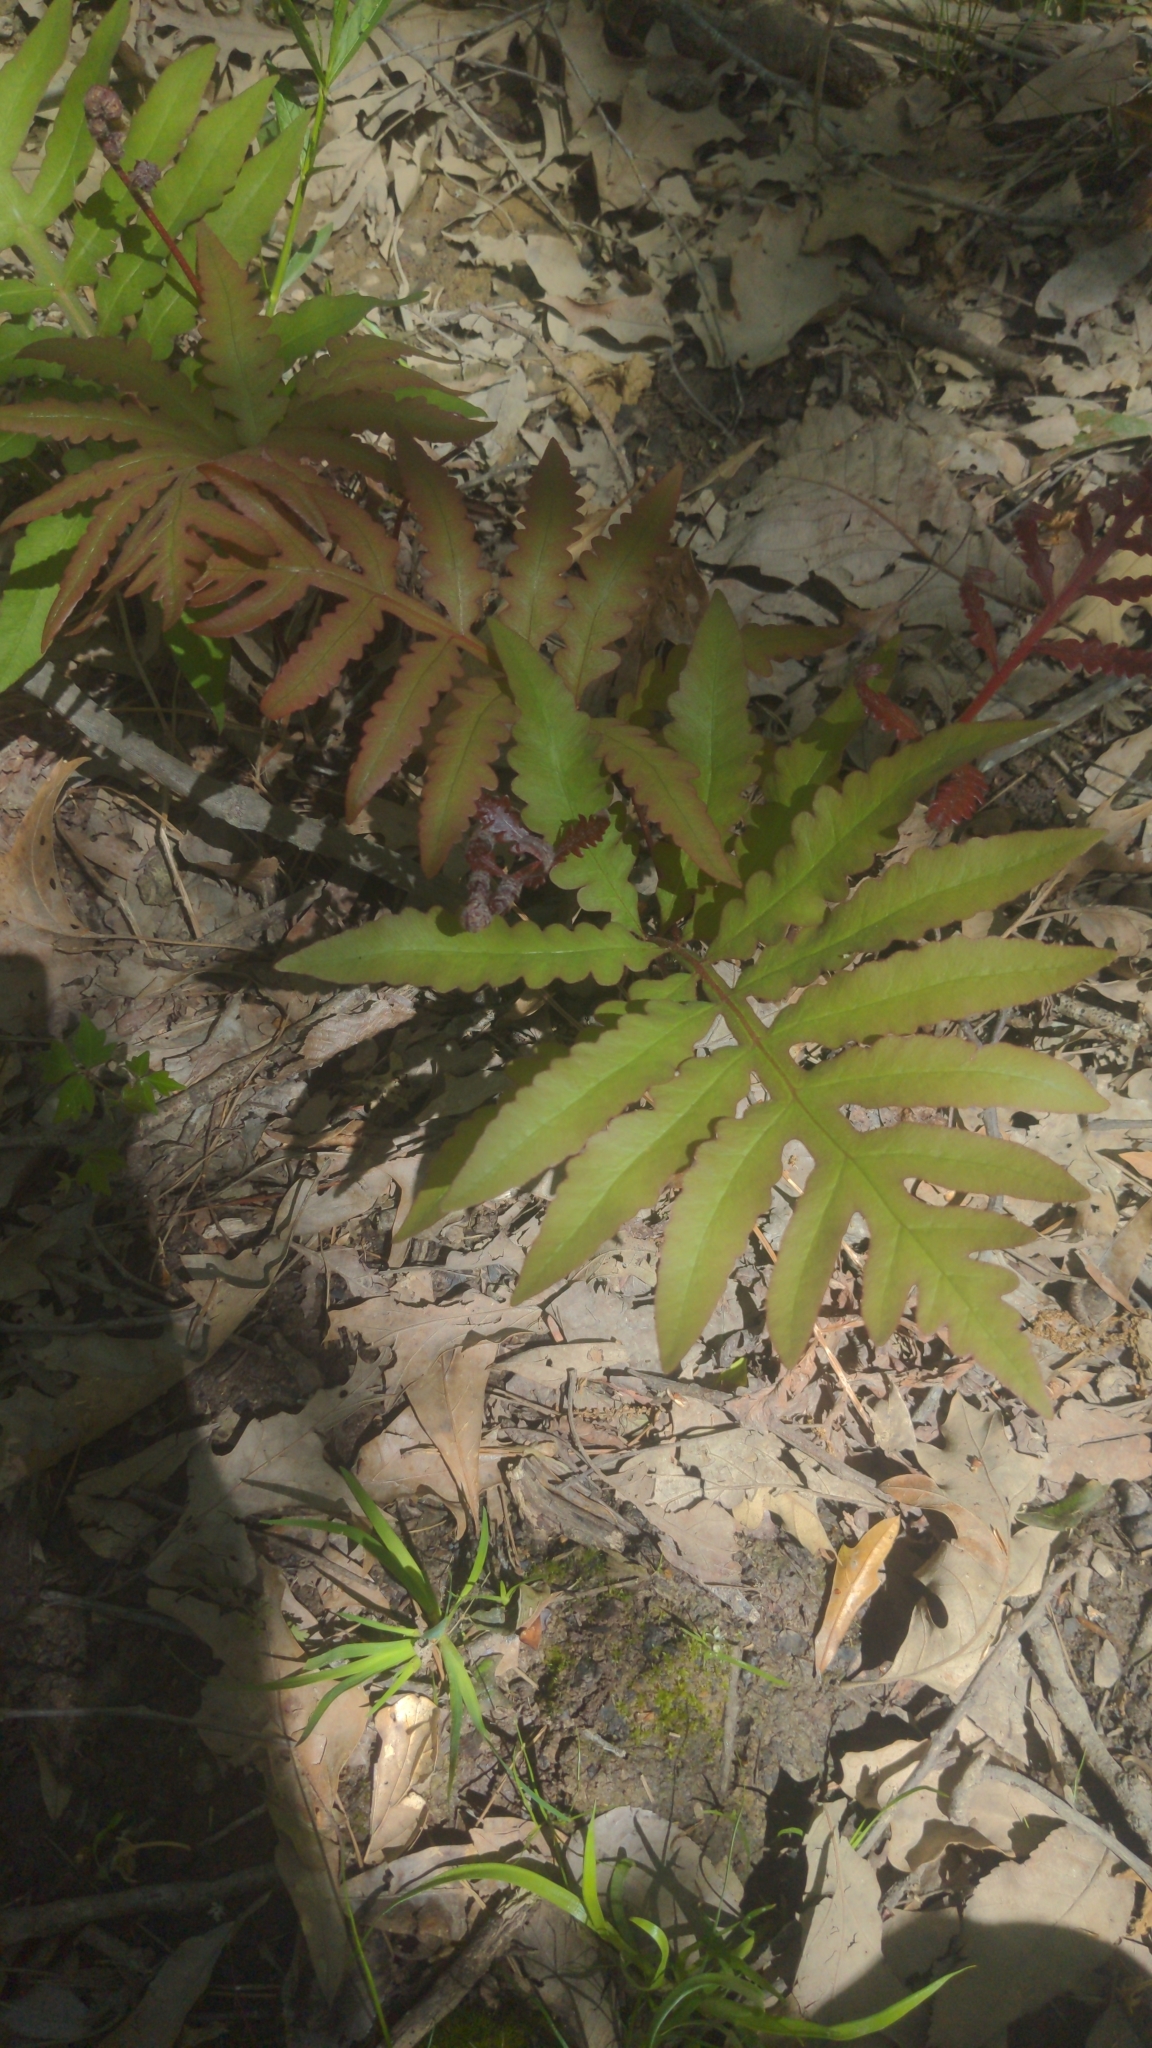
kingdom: Plantae
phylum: Tracheophyta
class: Polypodiopsida
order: Polypodiales
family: Onocleaceae
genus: Onoclea
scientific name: Onoclea sensibilis
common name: Sensitive fern
